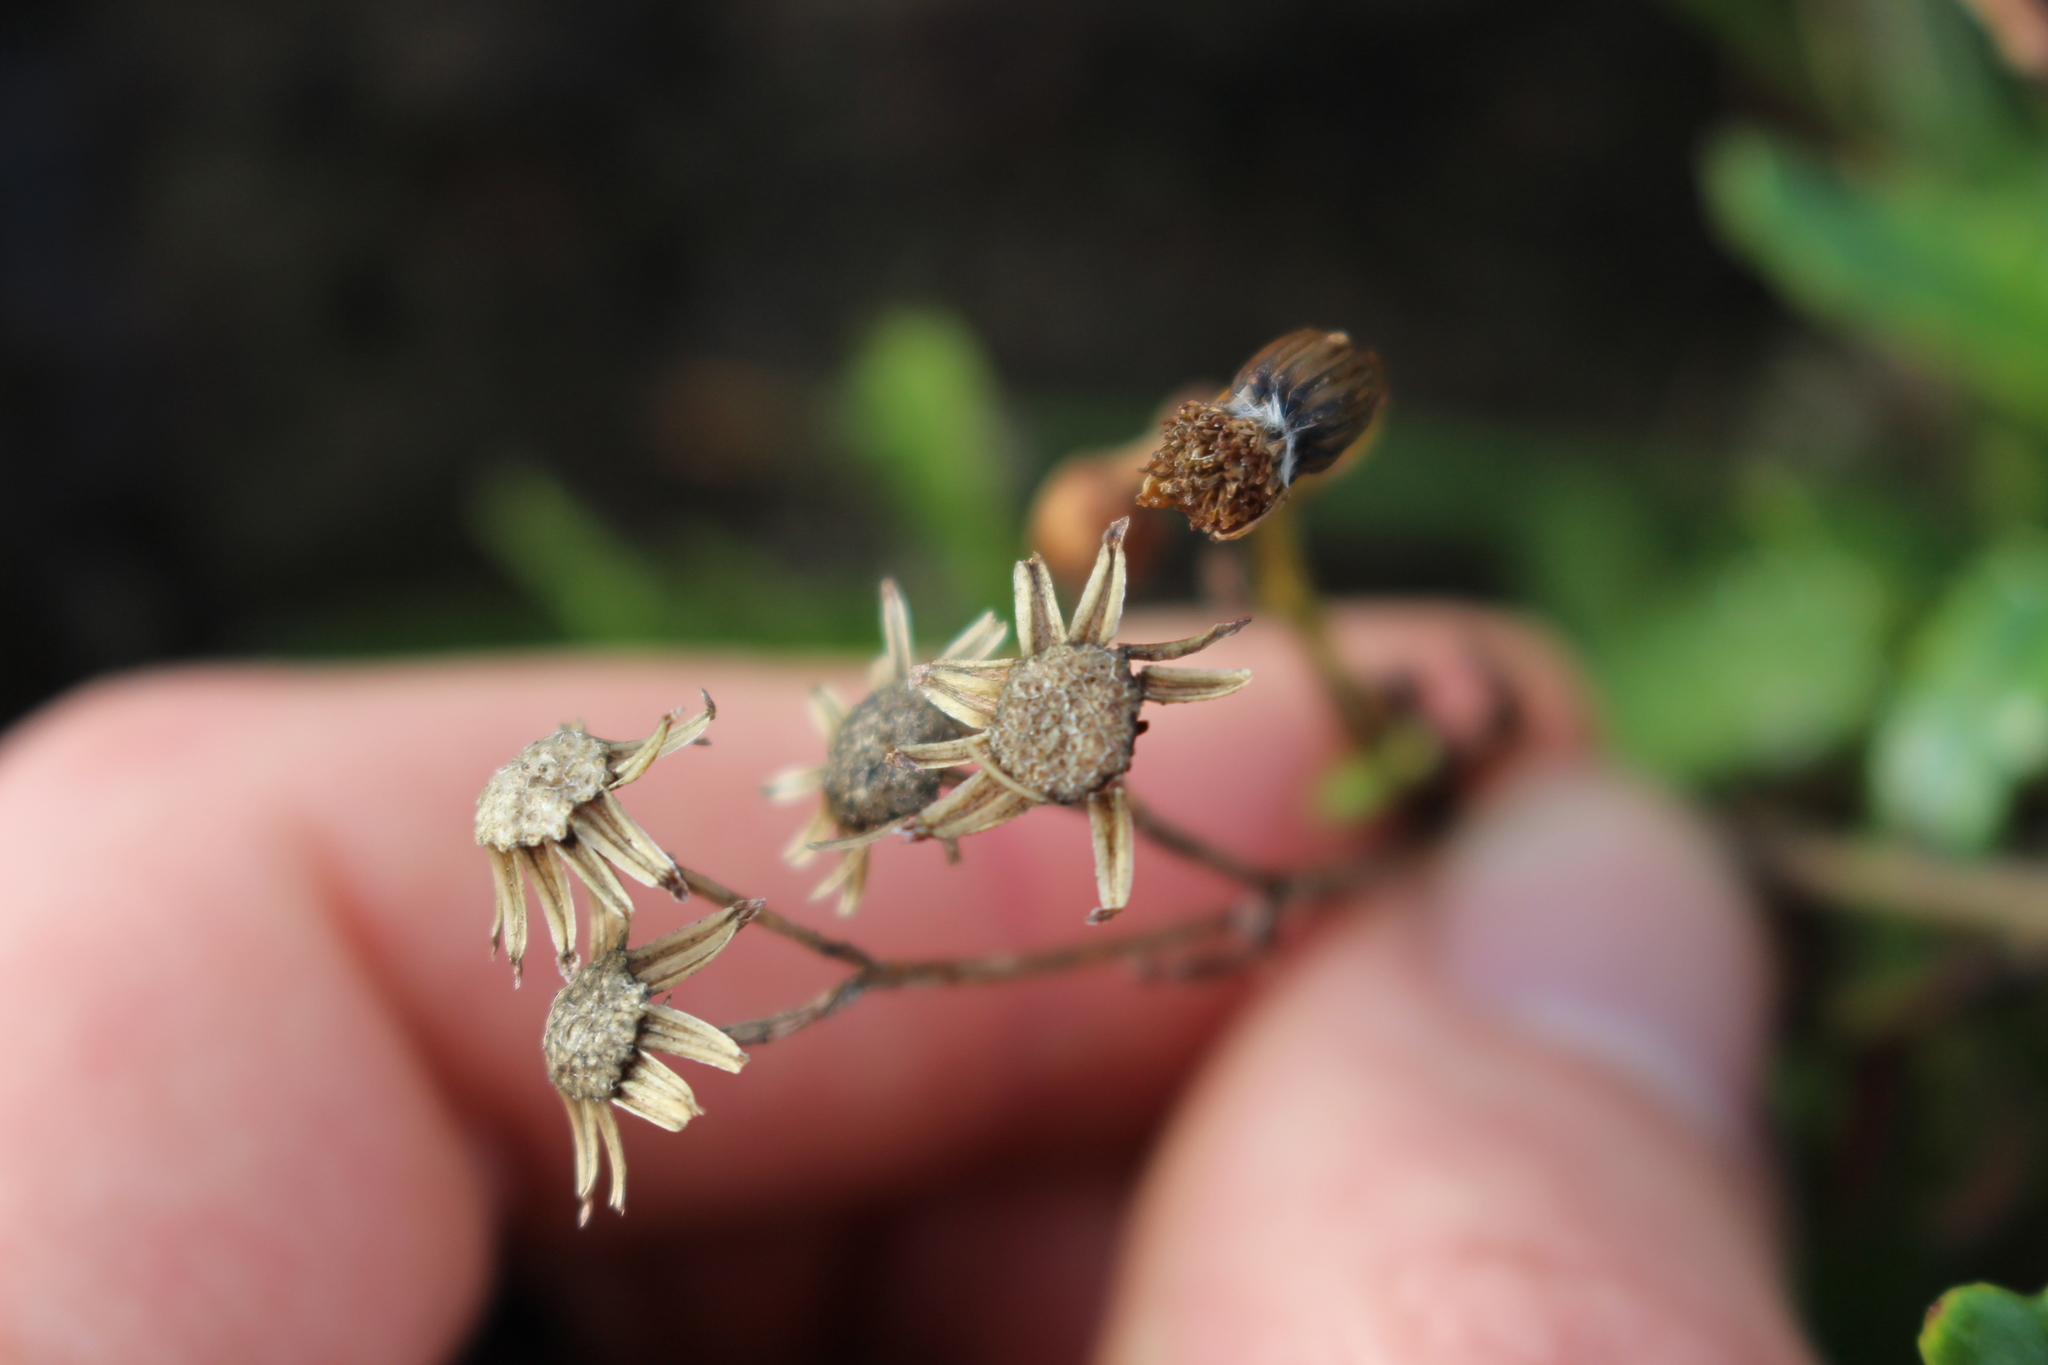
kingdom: Plantae
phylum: Tracheophyta
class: Magnoliopsida
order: Asterales
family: Asteraceae
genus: Senecio
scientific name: Senecio matatini
